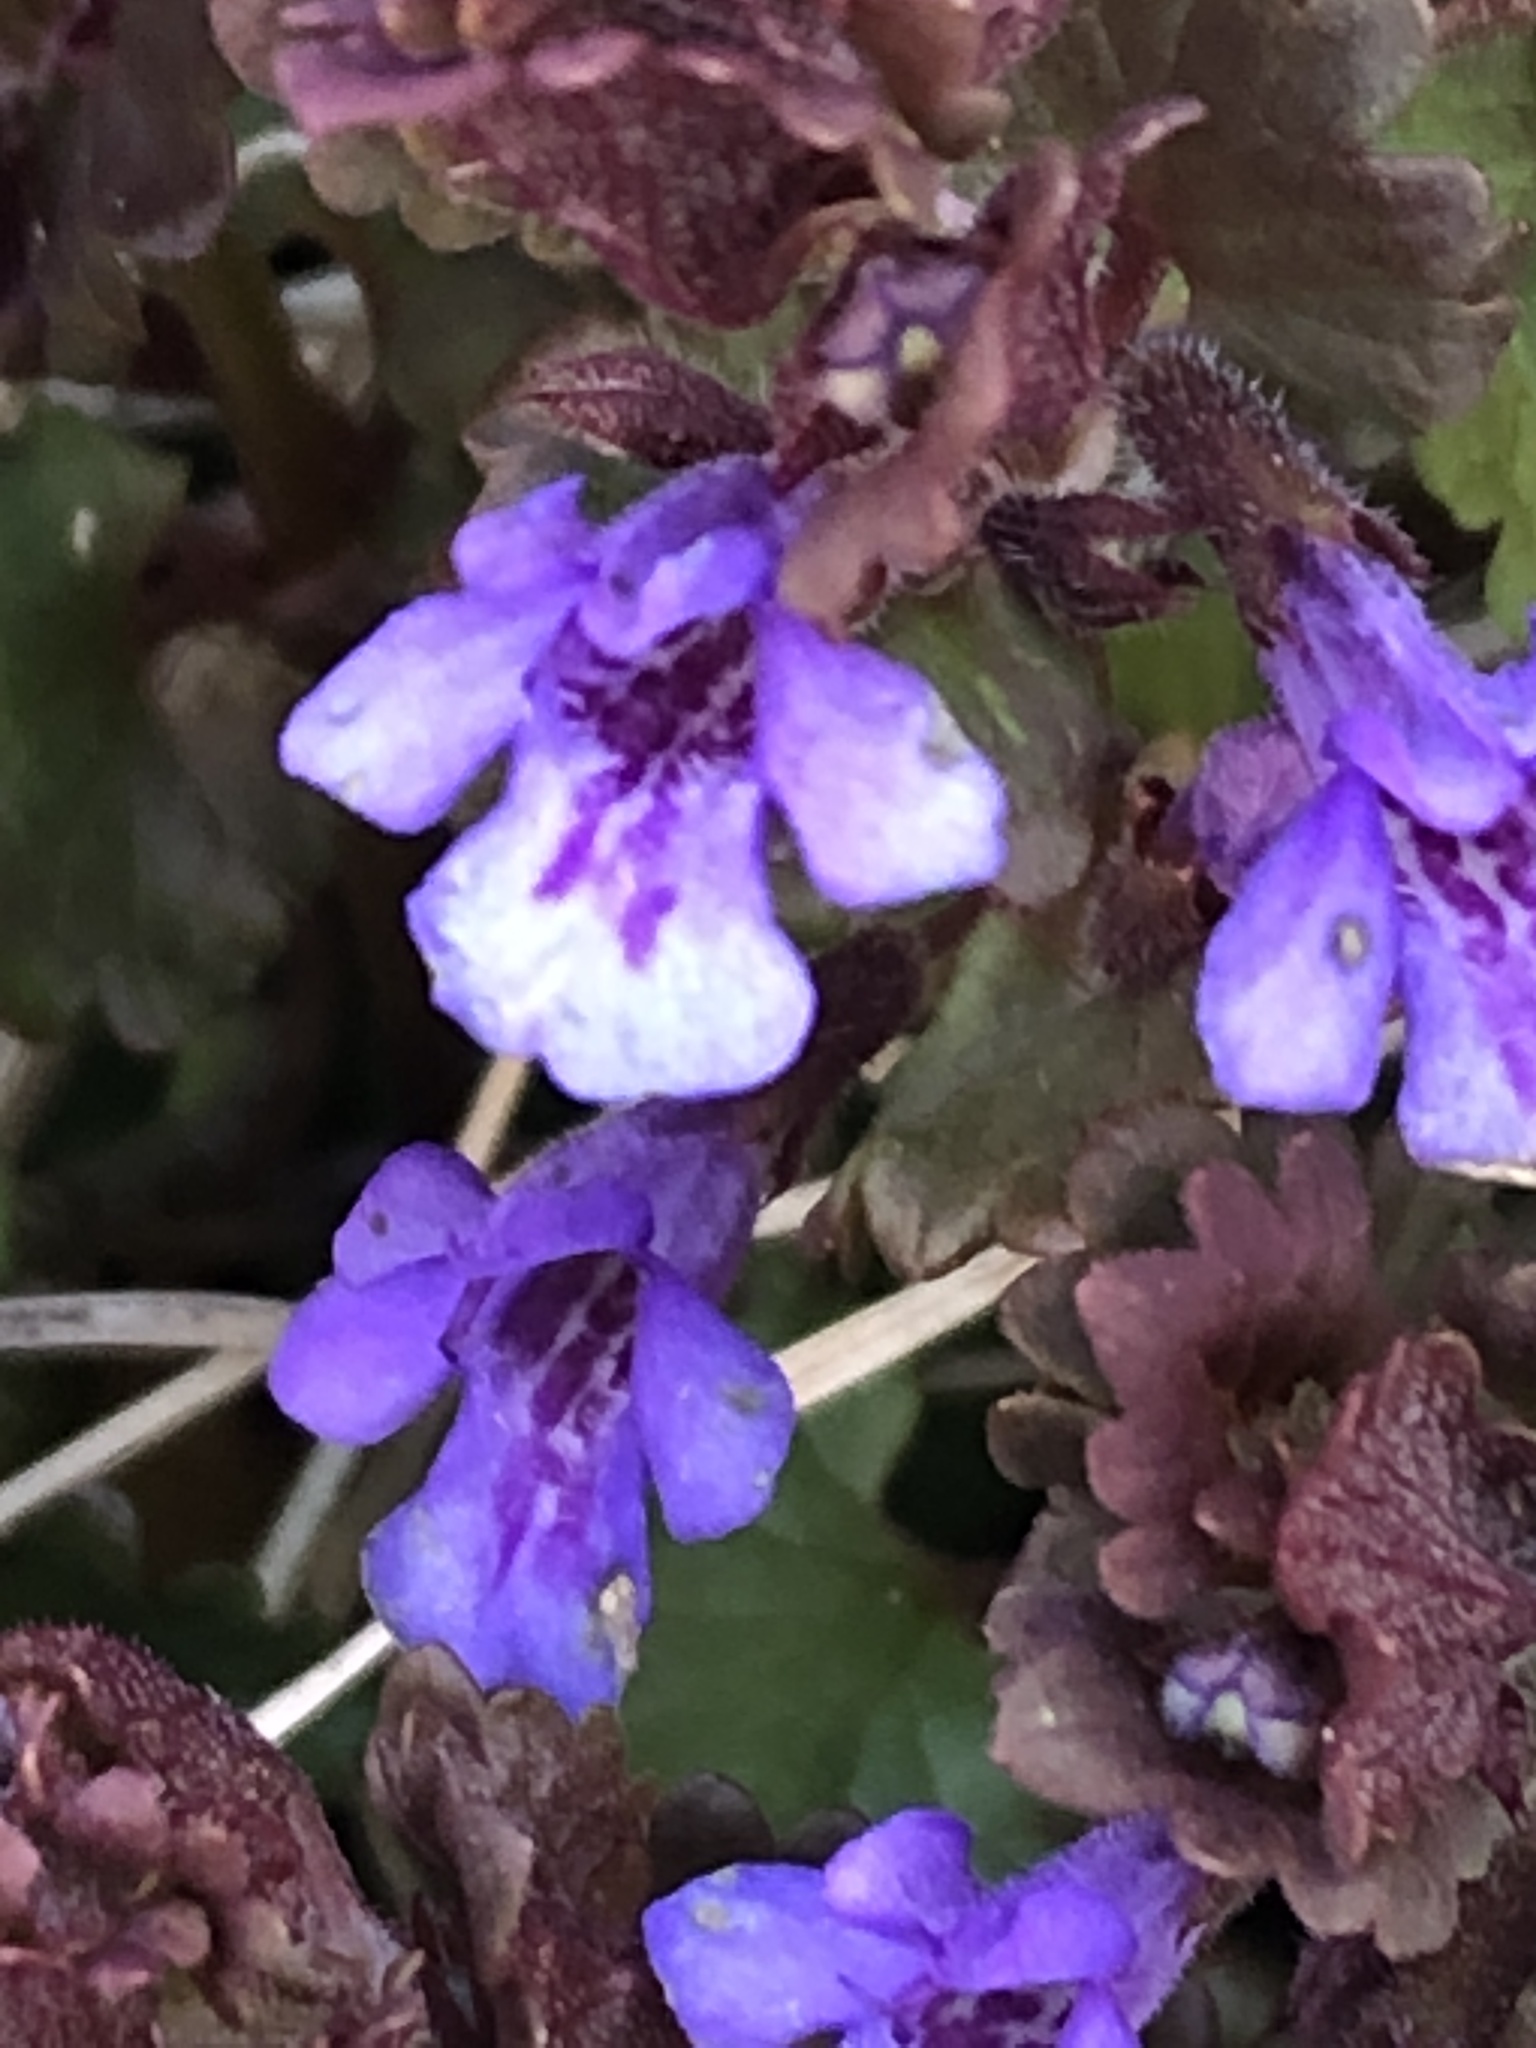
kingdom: Plantae
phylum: Tracheophyta
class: Magnoliopsida
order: Lamiales
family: Lamiaceae
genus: Glechoma
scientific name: Glechoma hederacea
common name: Ground ivy
